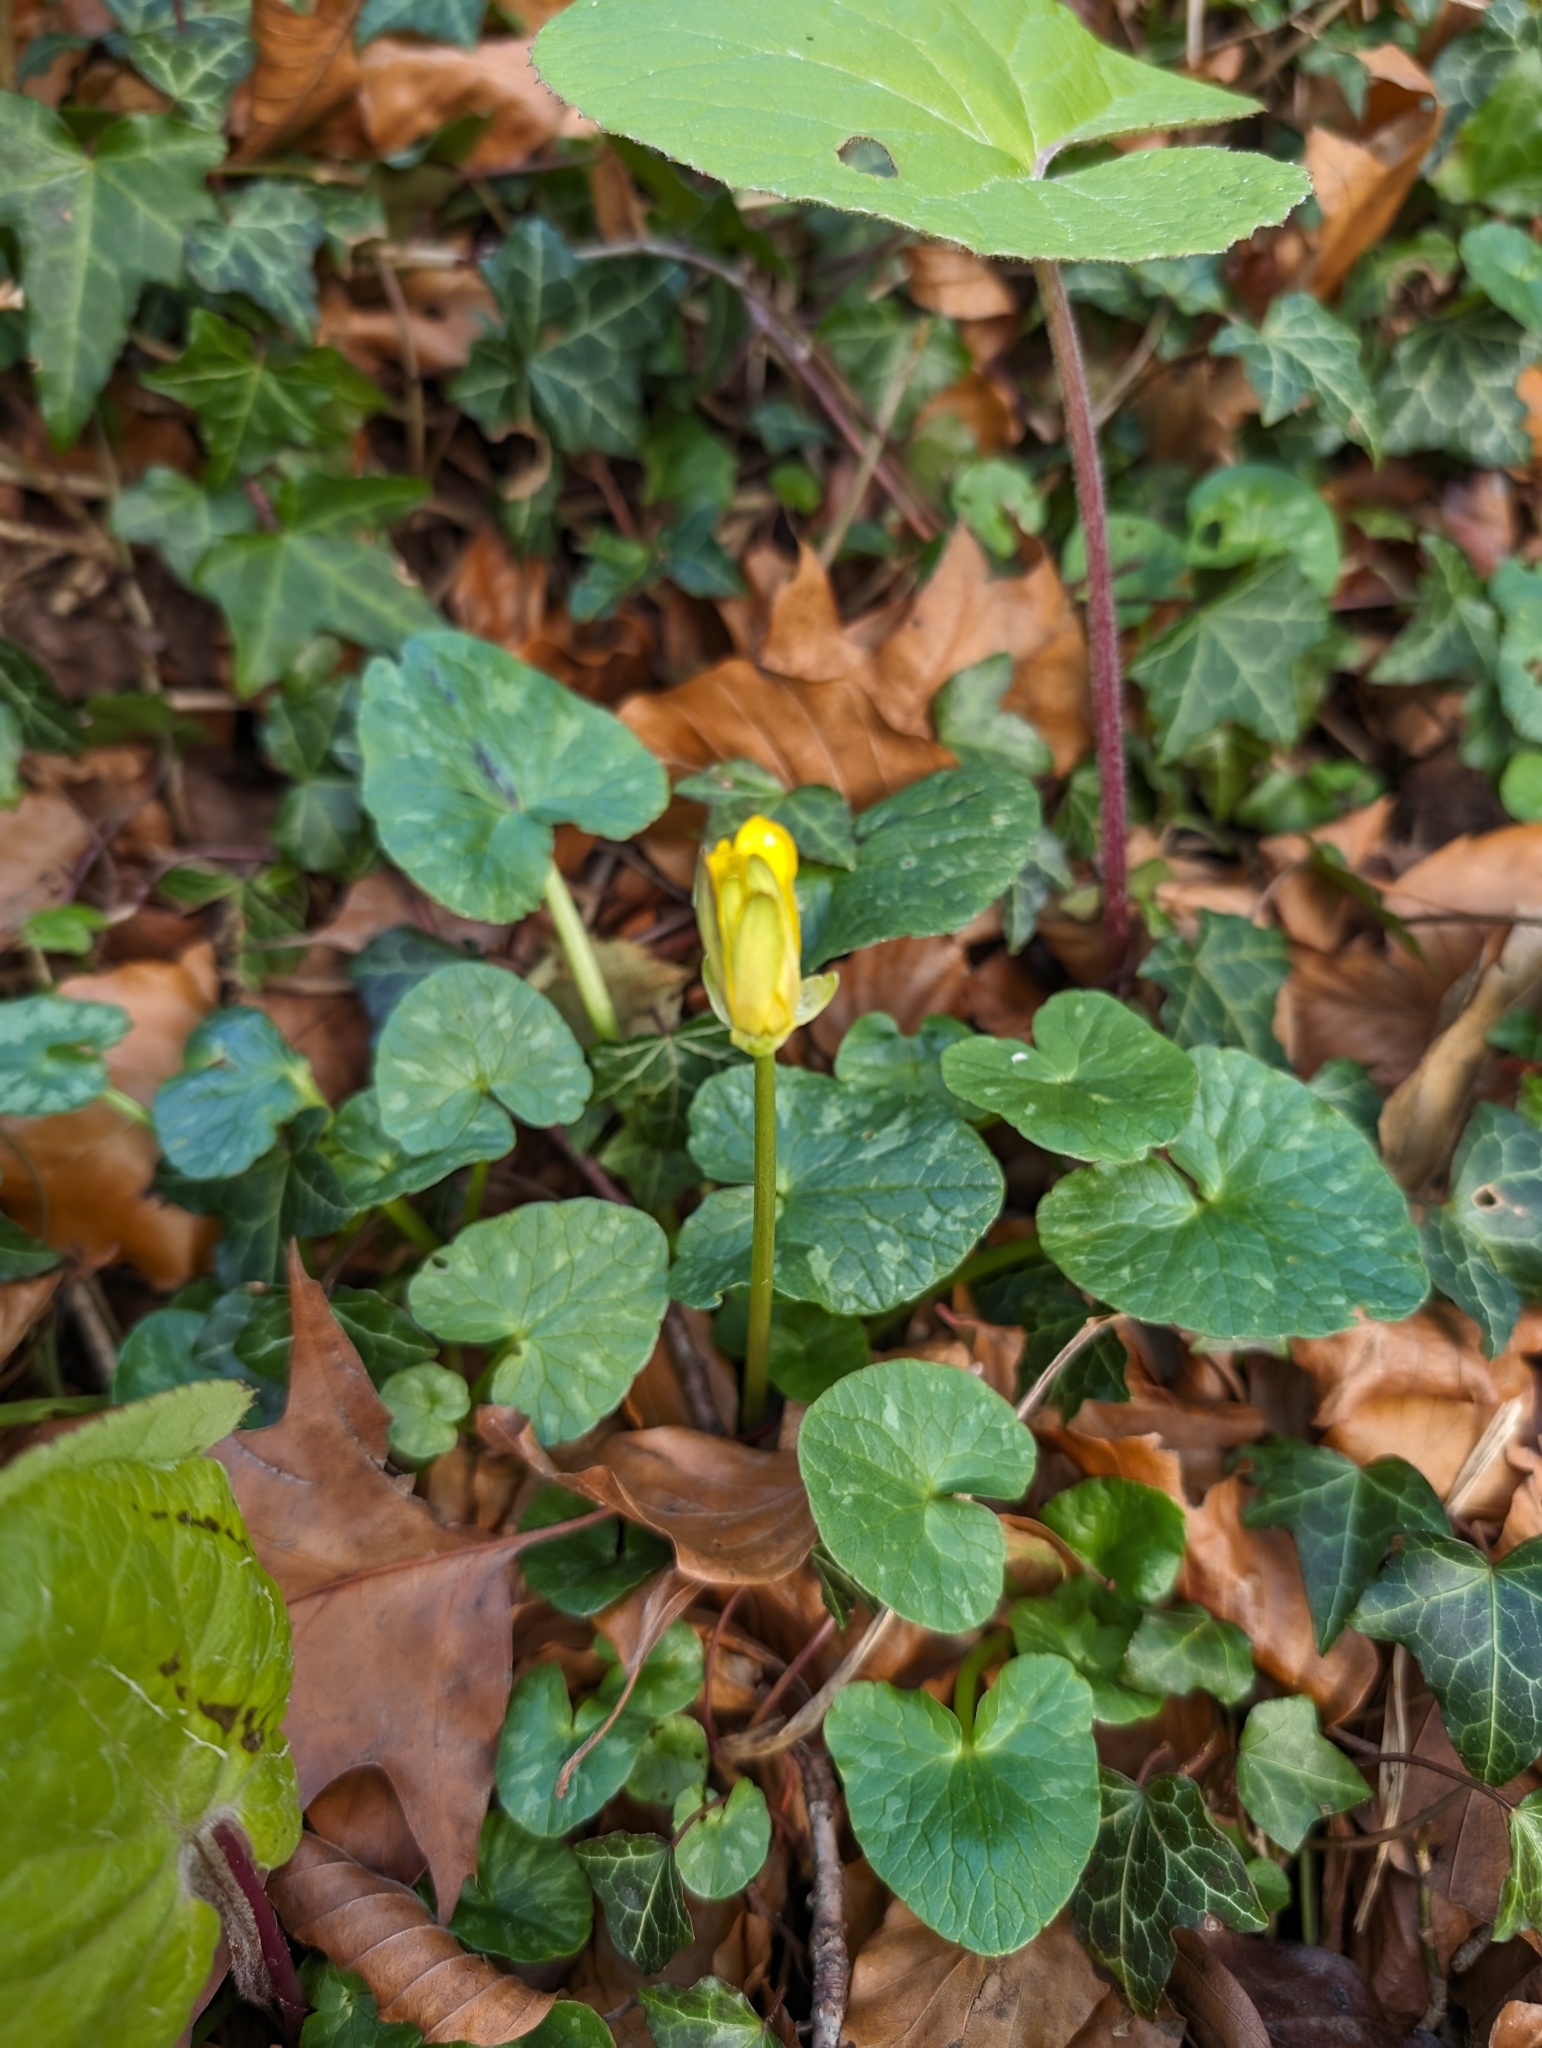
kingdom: Plantae
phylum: Tracheophyta
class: Magnoliopsida
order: Ranunculales
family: Ranunculaceae
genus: Ficaria
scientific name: Ficaria verna
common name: Lesser celandine
